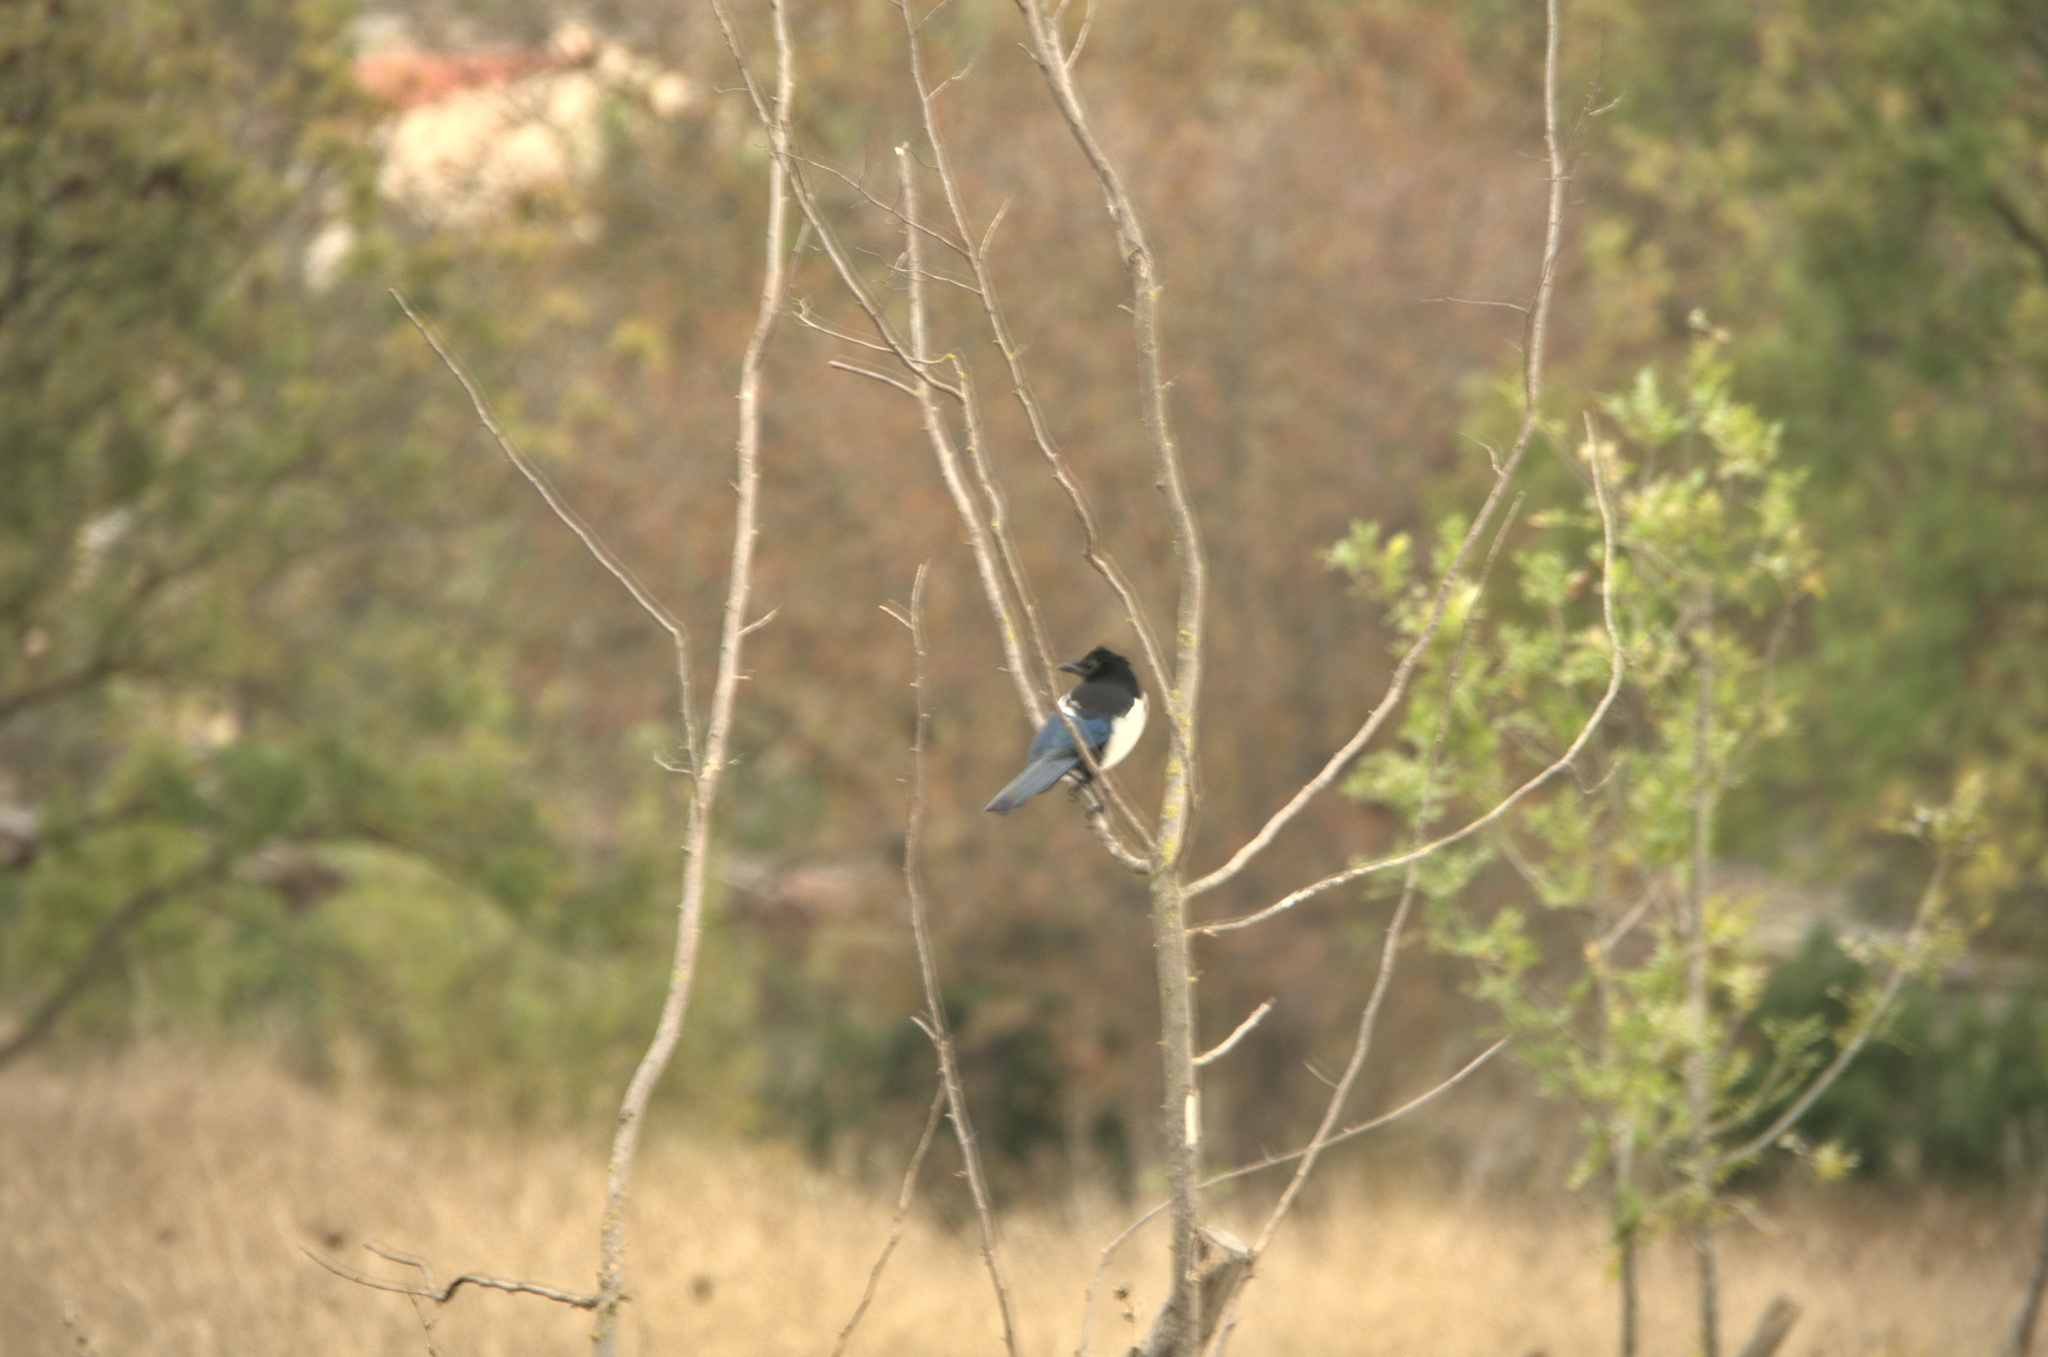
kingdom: Animalia
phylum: Chordata
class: Aves
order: Passeriformes
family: Corvidae
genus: Pica
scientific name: Pica pica
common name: Eurasian magpie
